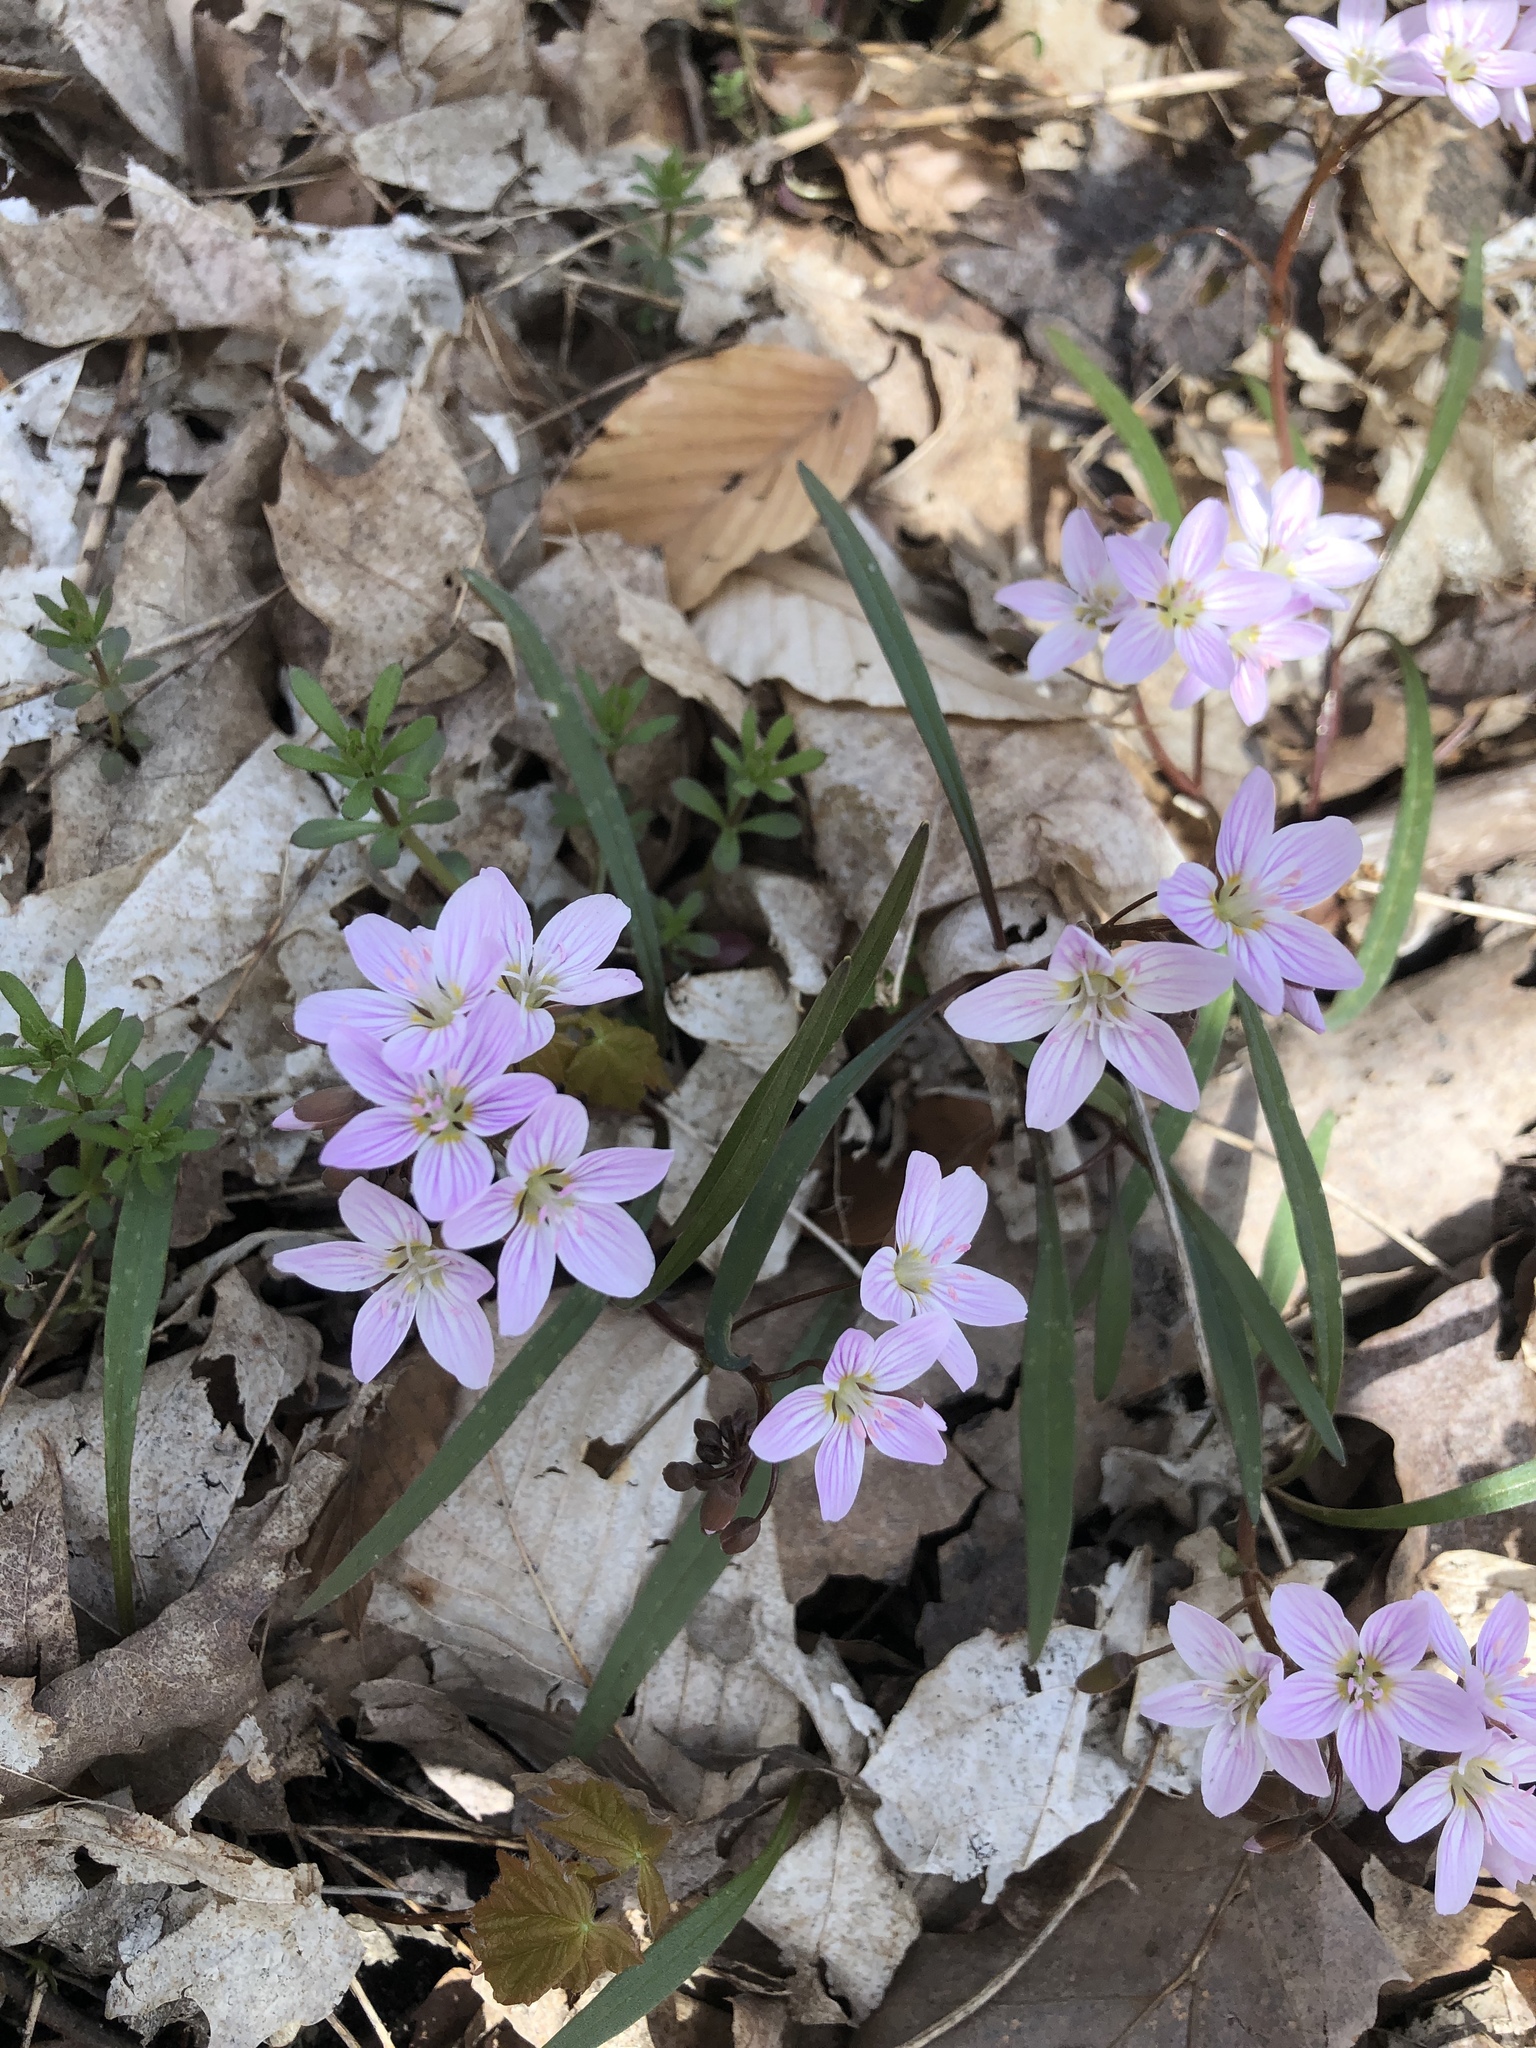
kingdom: Plantae
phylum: Tracheophyta
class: Magnoliopsida
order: Caryophyllales
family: Montiaceae
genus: Claytonia
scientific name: Claytonia virginica
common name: Virginia springbeauty
